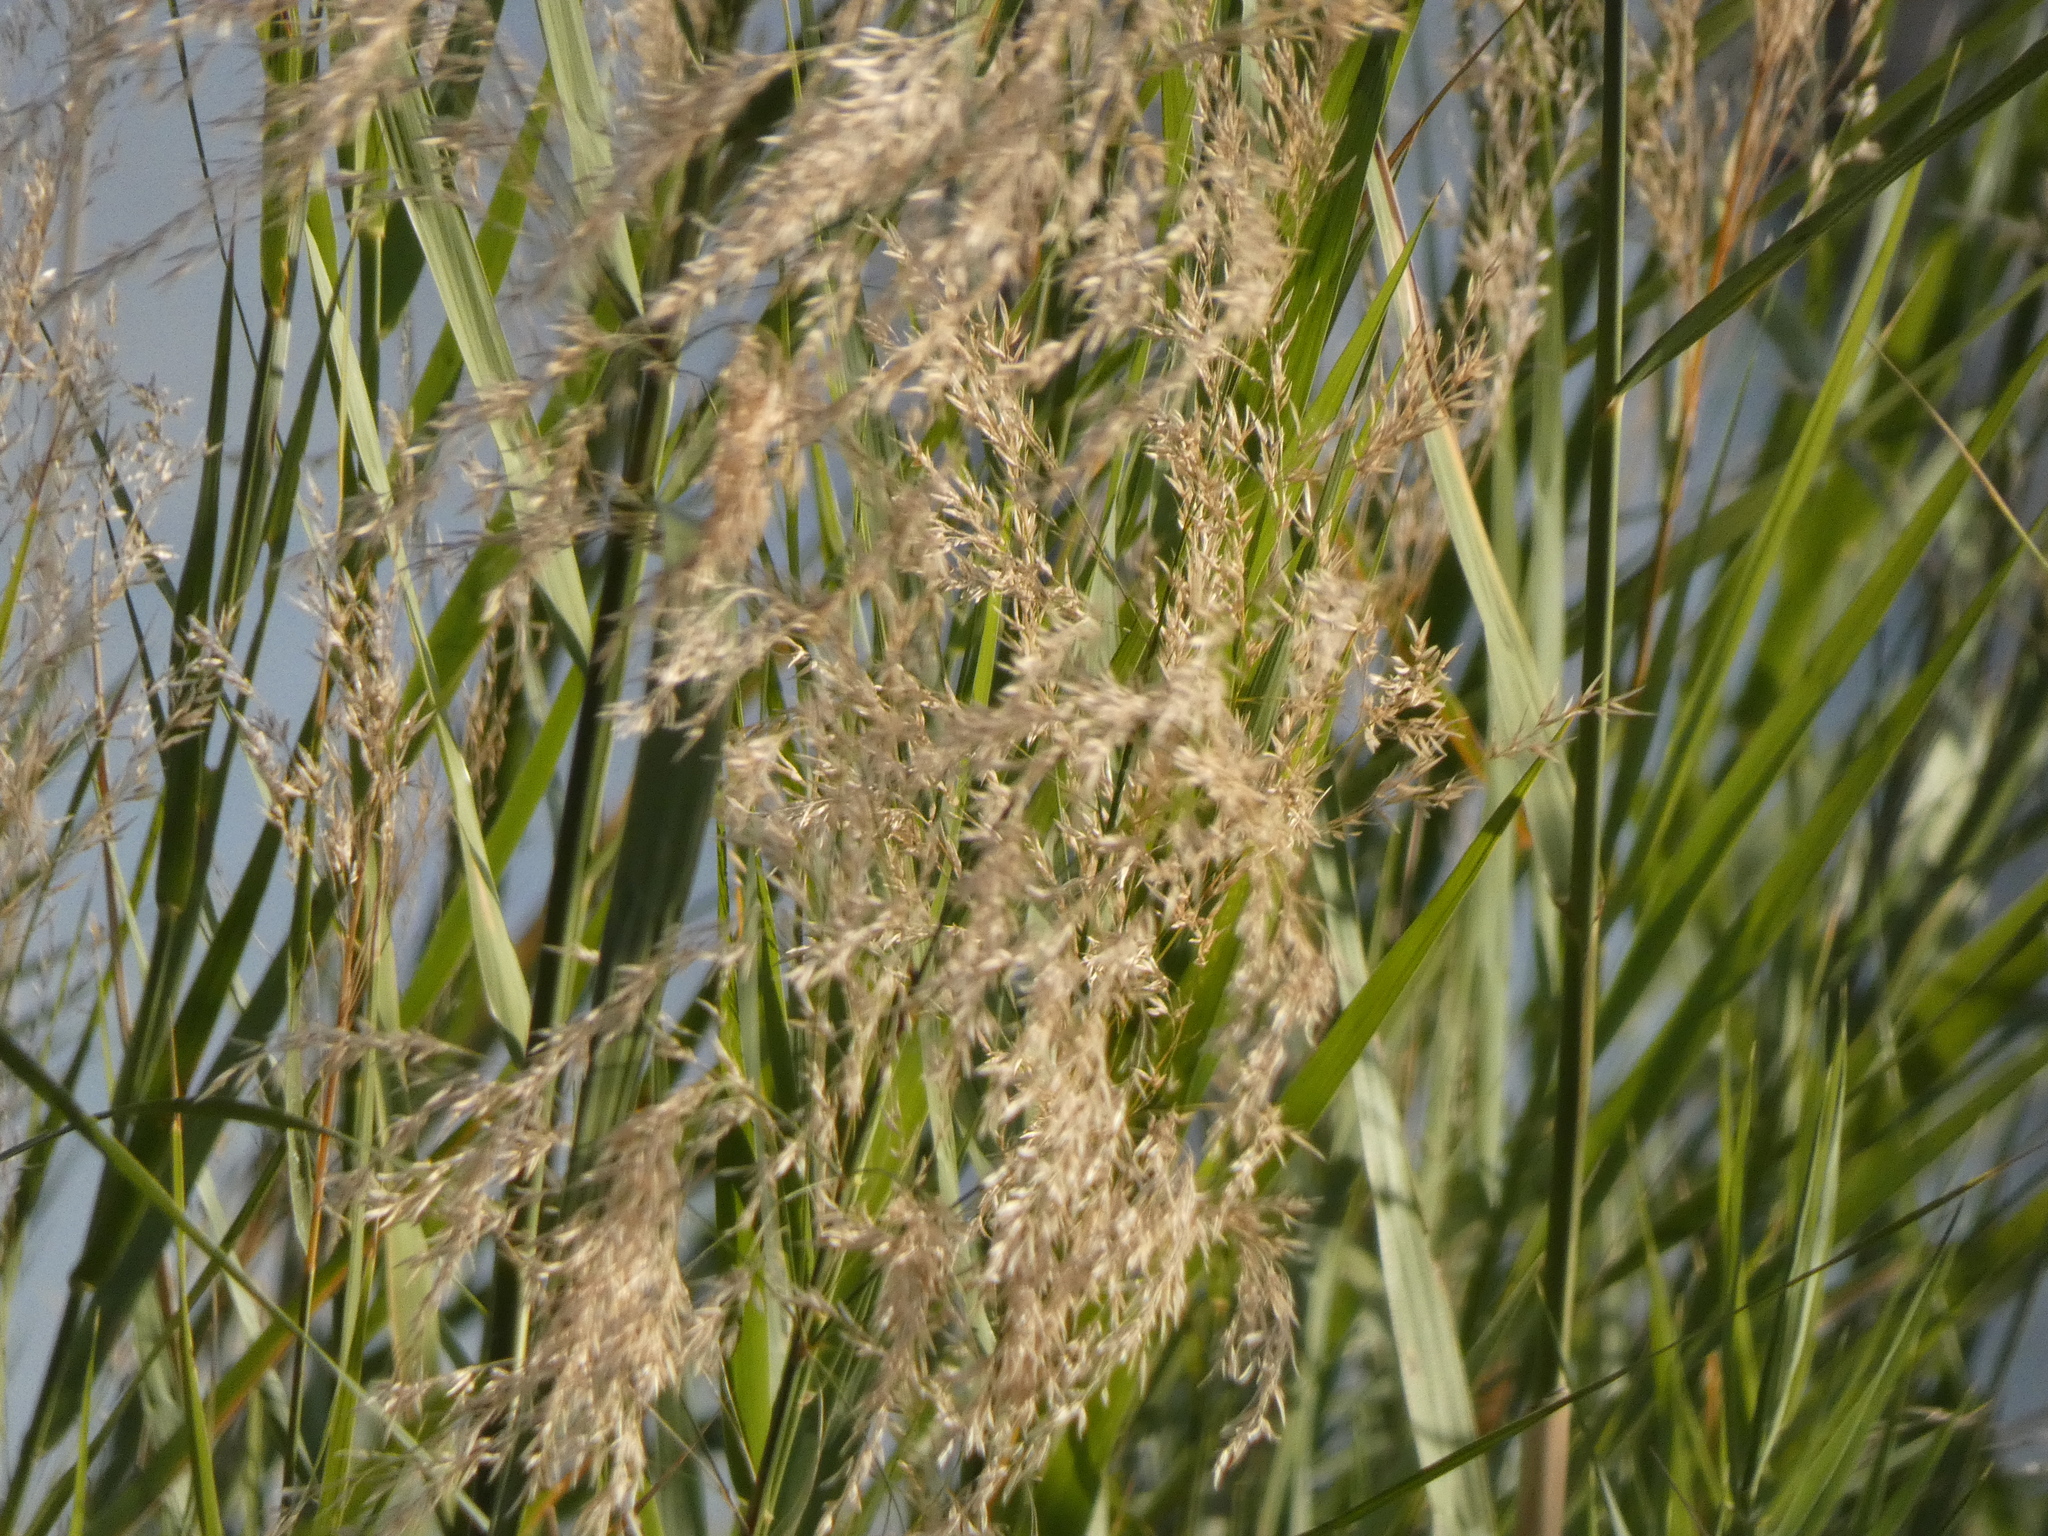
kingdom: Plantae
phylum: Tracheophyta
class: Liliopsida
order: Poales
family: Poaceae
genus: Phragmites
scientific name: Phragmites mauritianus
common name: Reed grass
